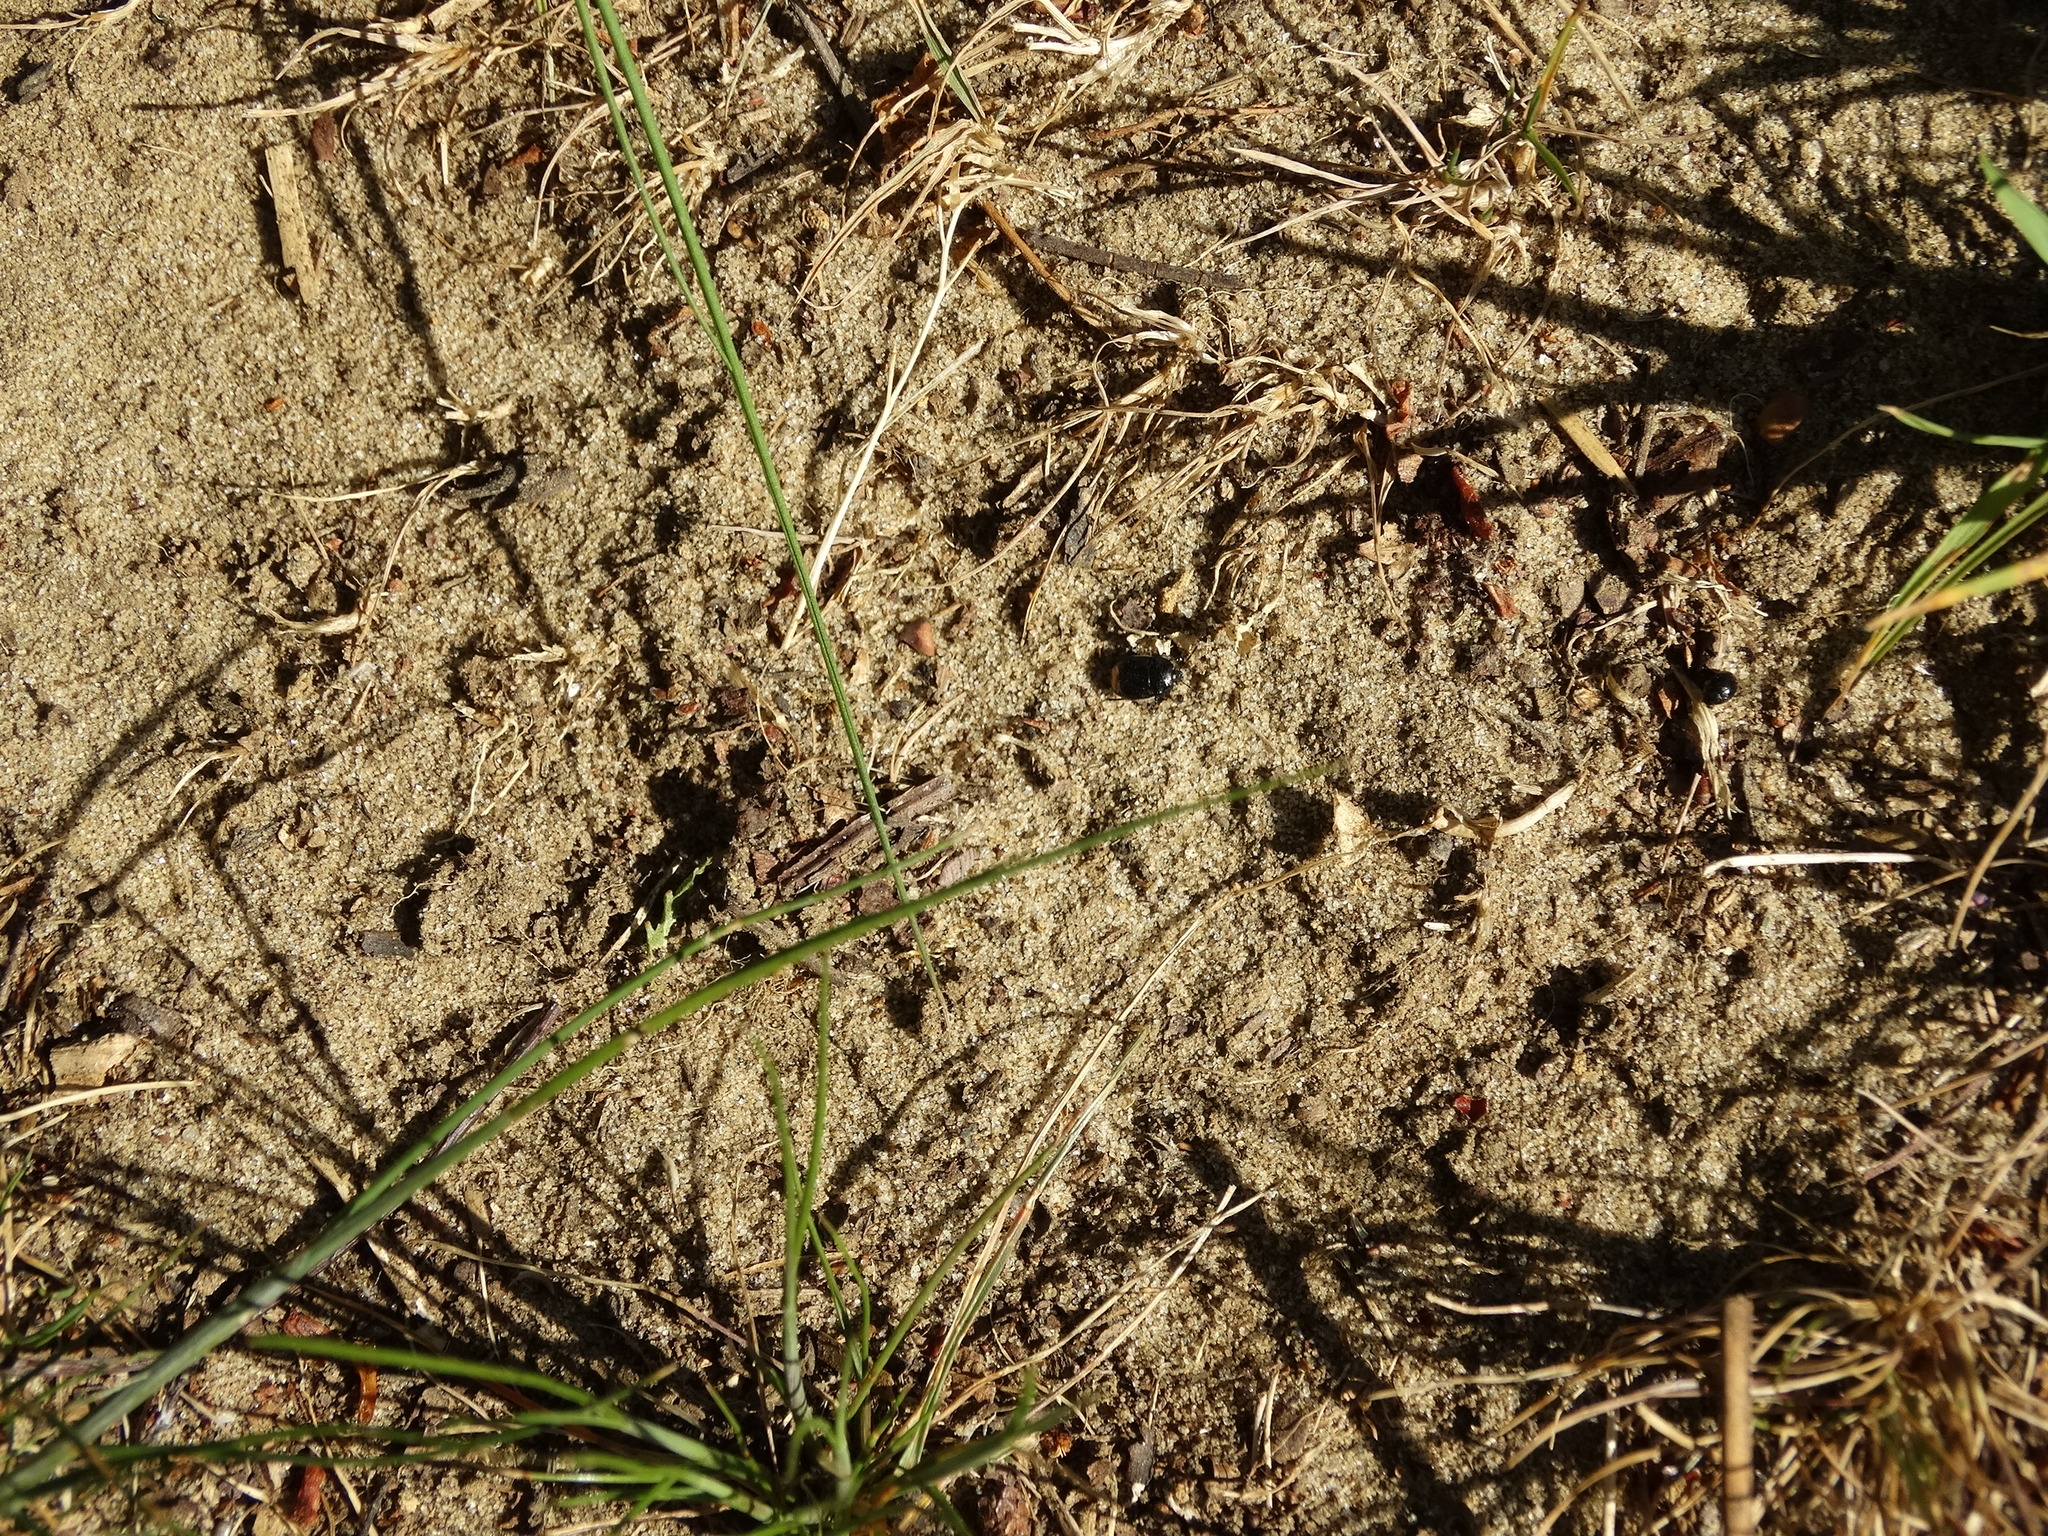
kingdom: Animalia
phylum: Arthropoda
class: Insecta
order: Hemiptera
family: Cydnidae
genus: Legnotus
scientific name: Legnotus limbosus
